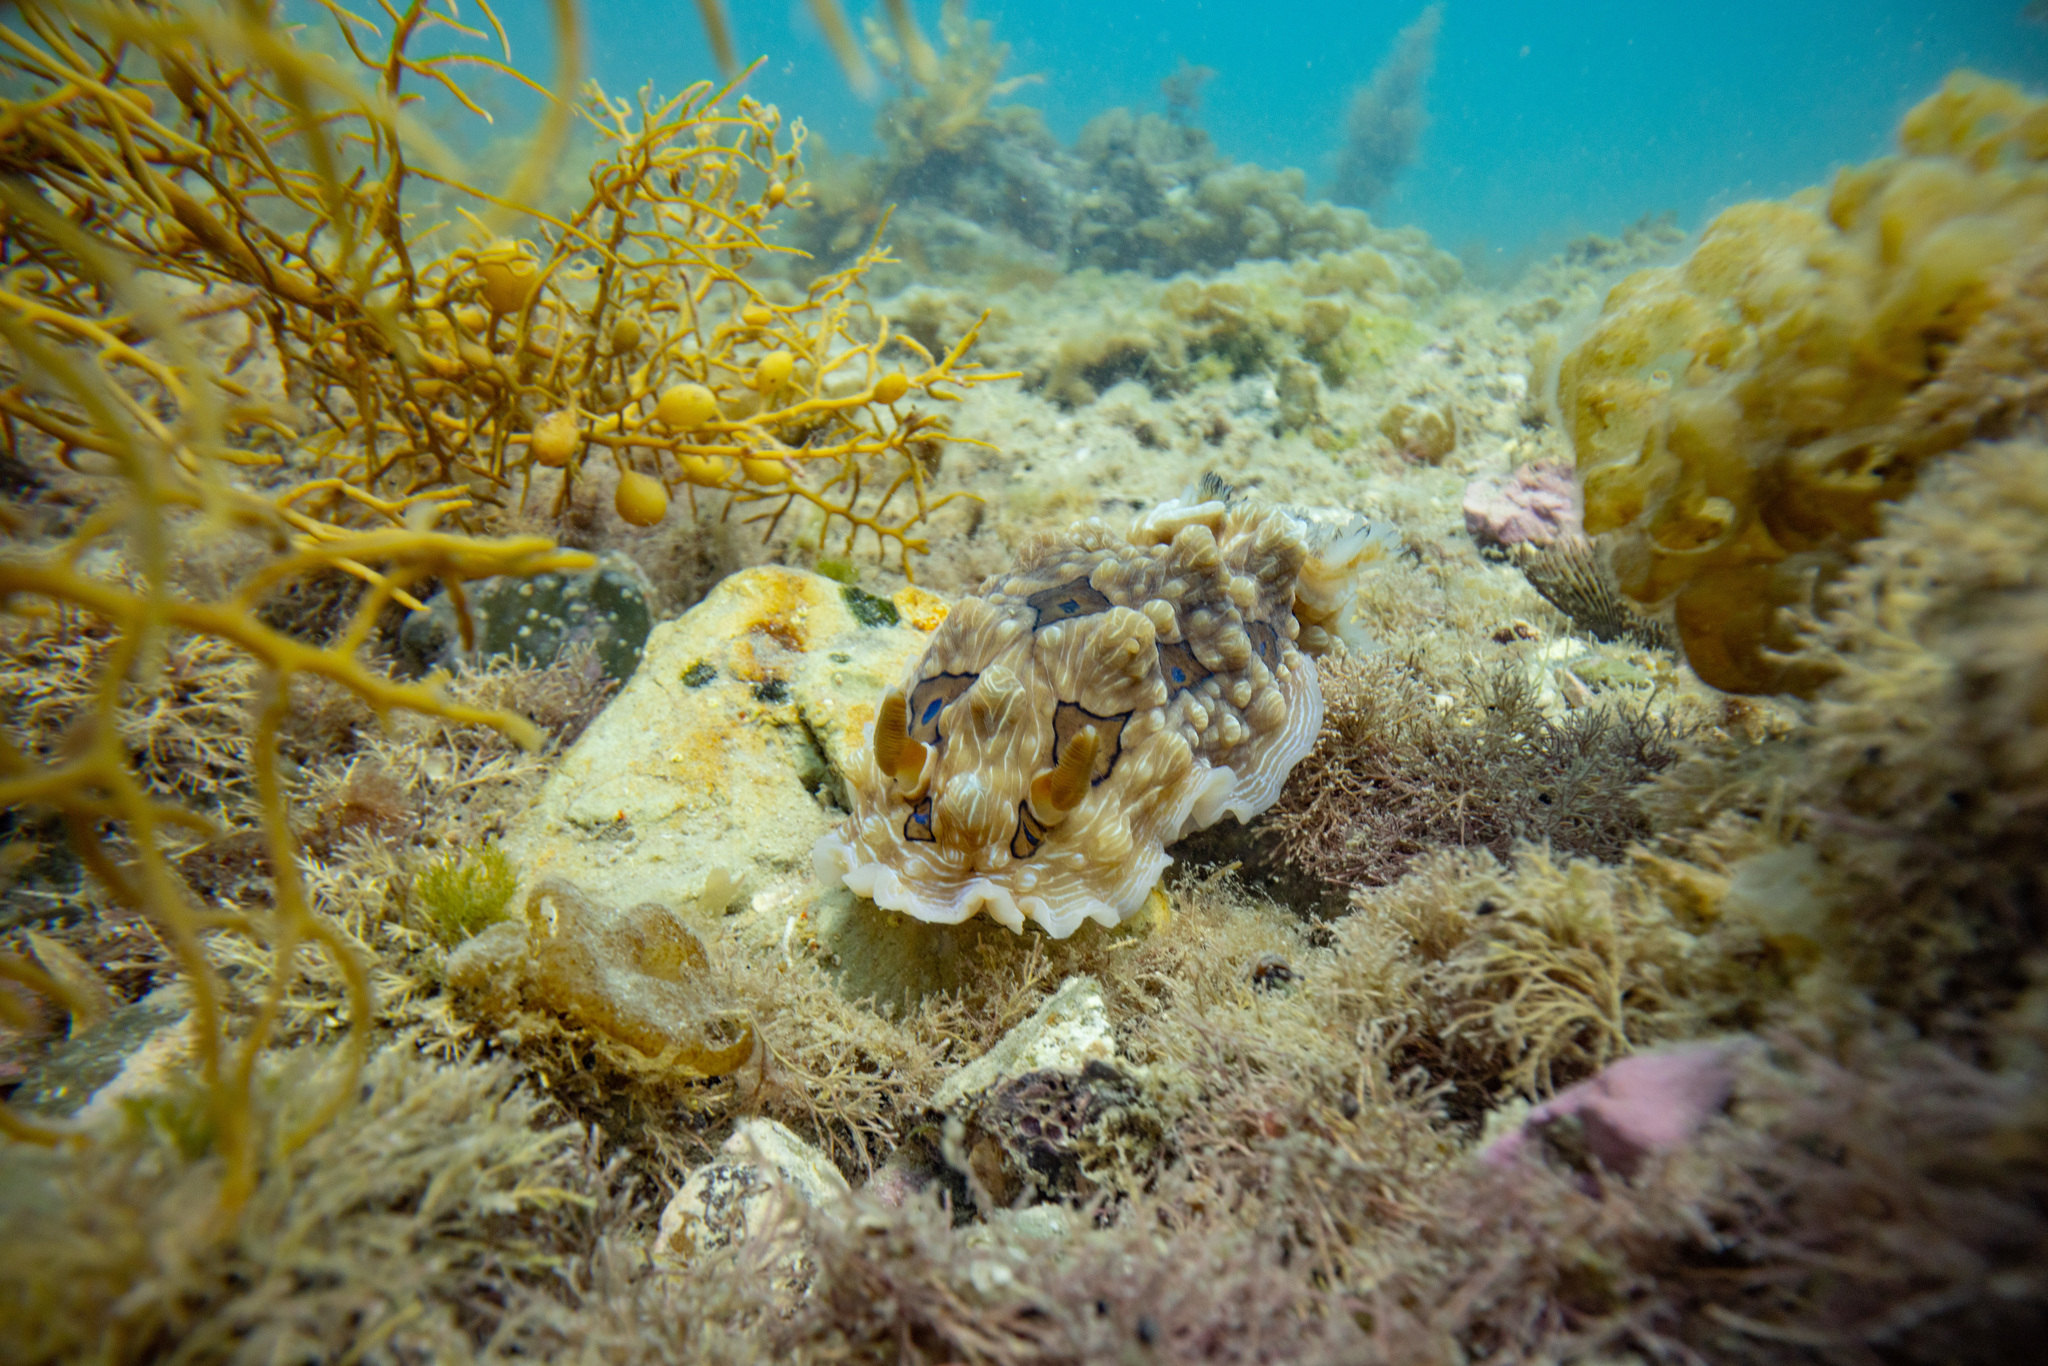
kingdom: Animalia
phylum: Mollusca
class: Gastropoda
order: Nudibranchia
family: Dendrodorididae
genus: Dendrodoris
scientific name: Dendrodoris krusensternii
